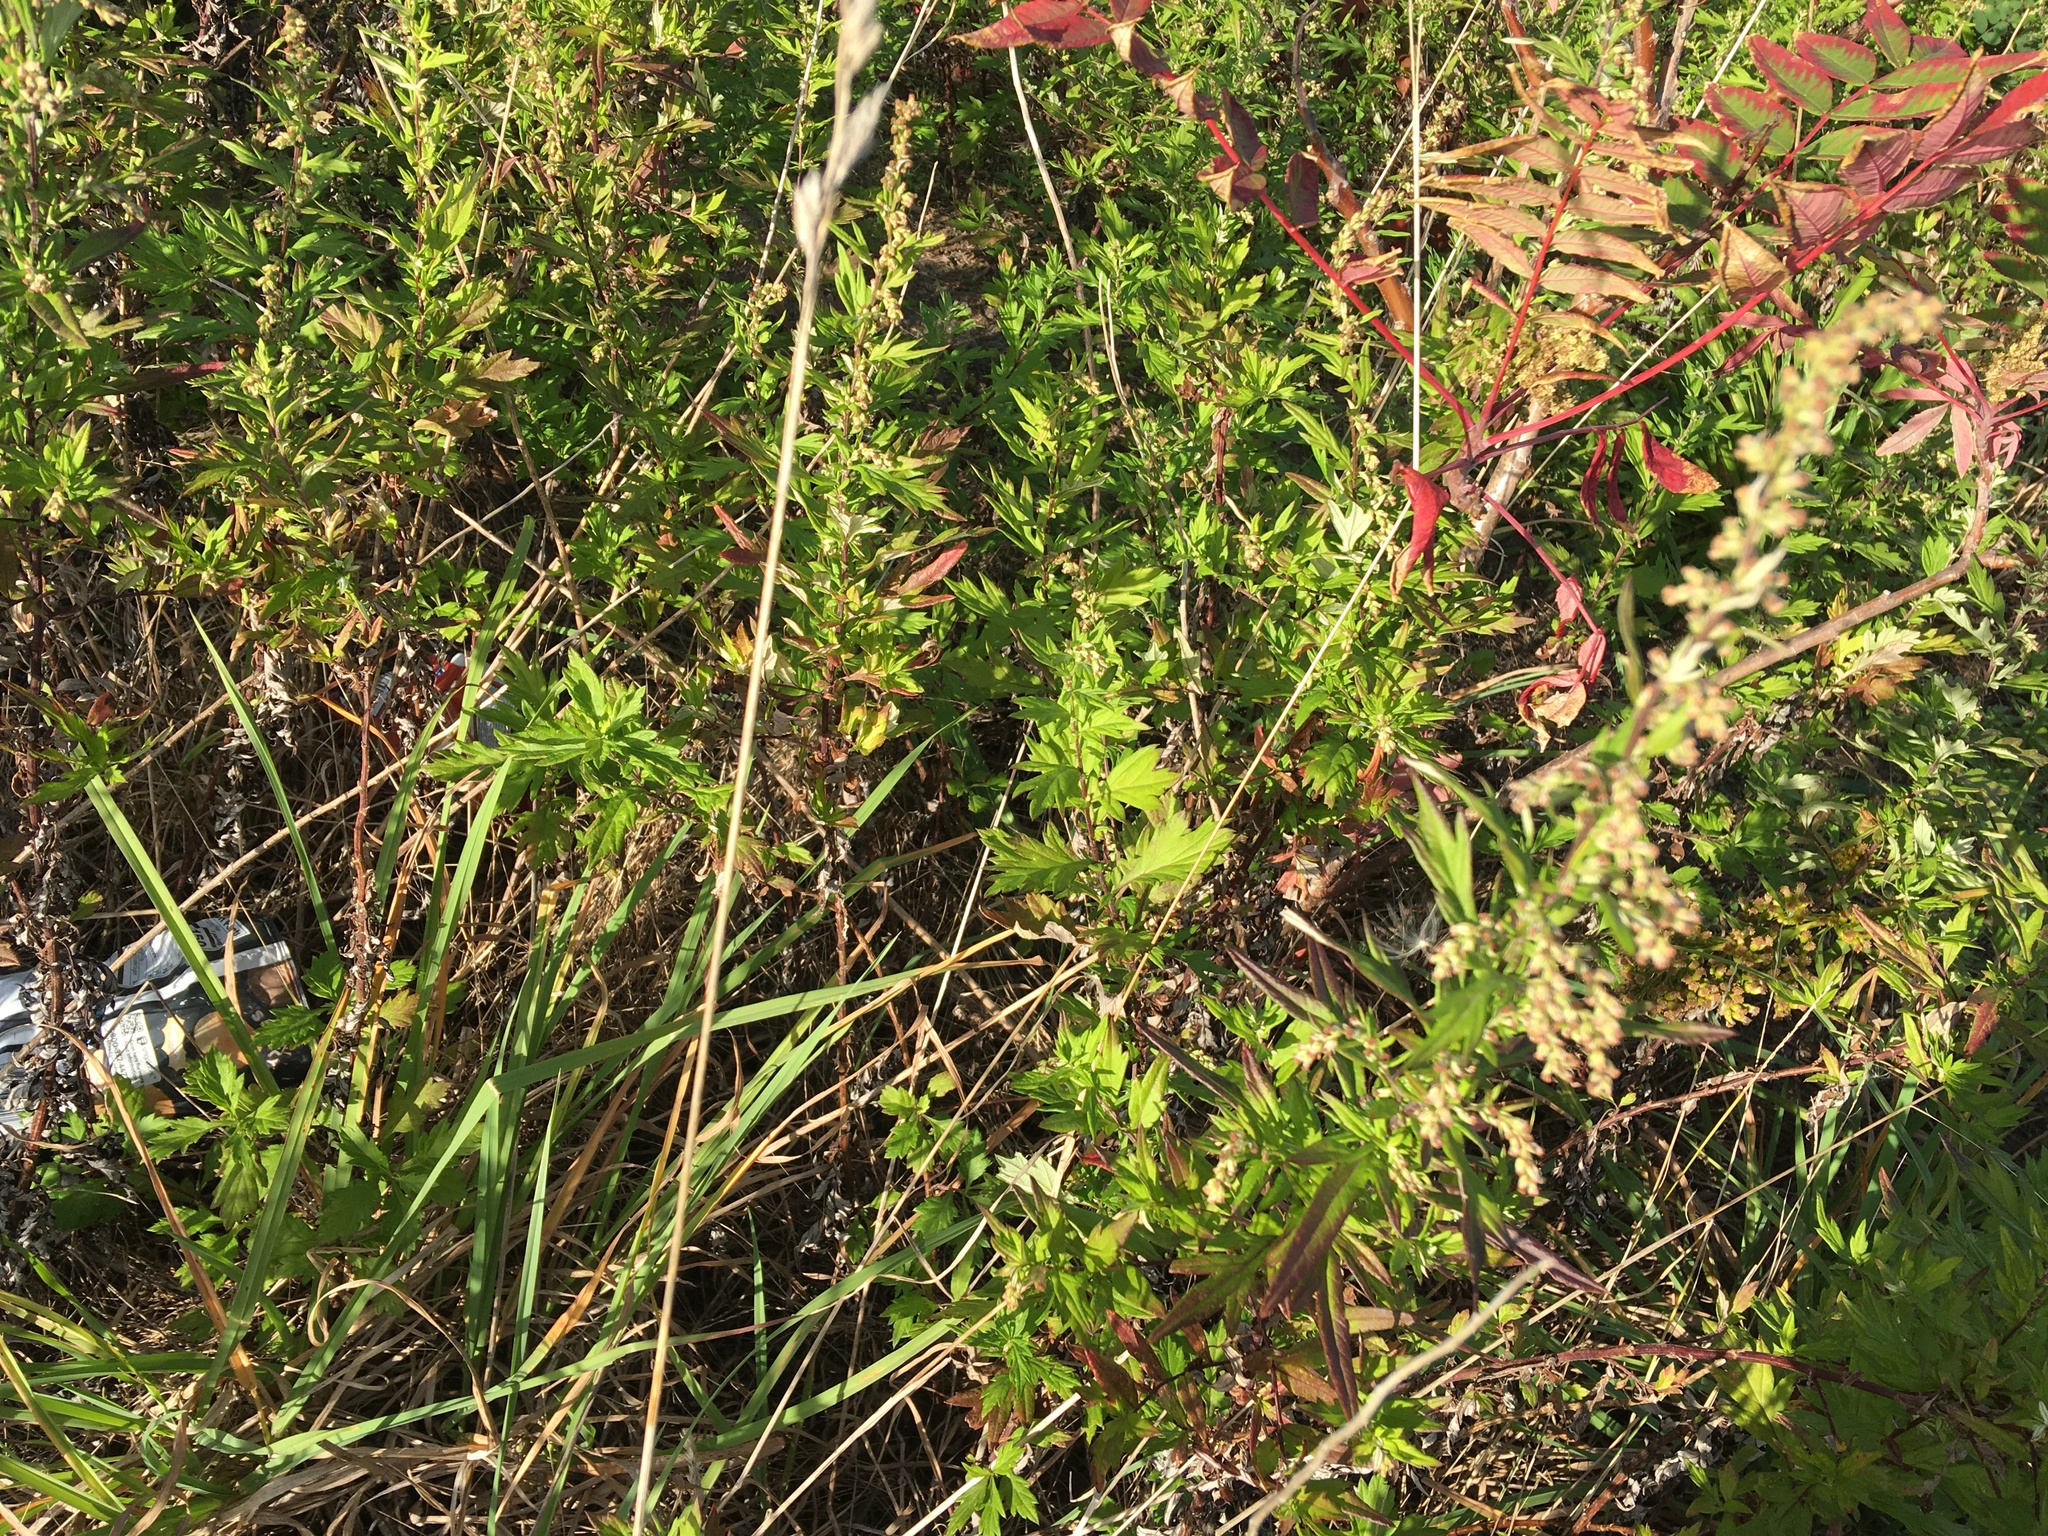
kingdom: Plantae
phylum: Tracheophyta
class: Magnoliopsida
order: Asterales
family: Asteraceae
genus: Artemisia
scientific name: Artemisia vulgaris
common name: Mugwort
